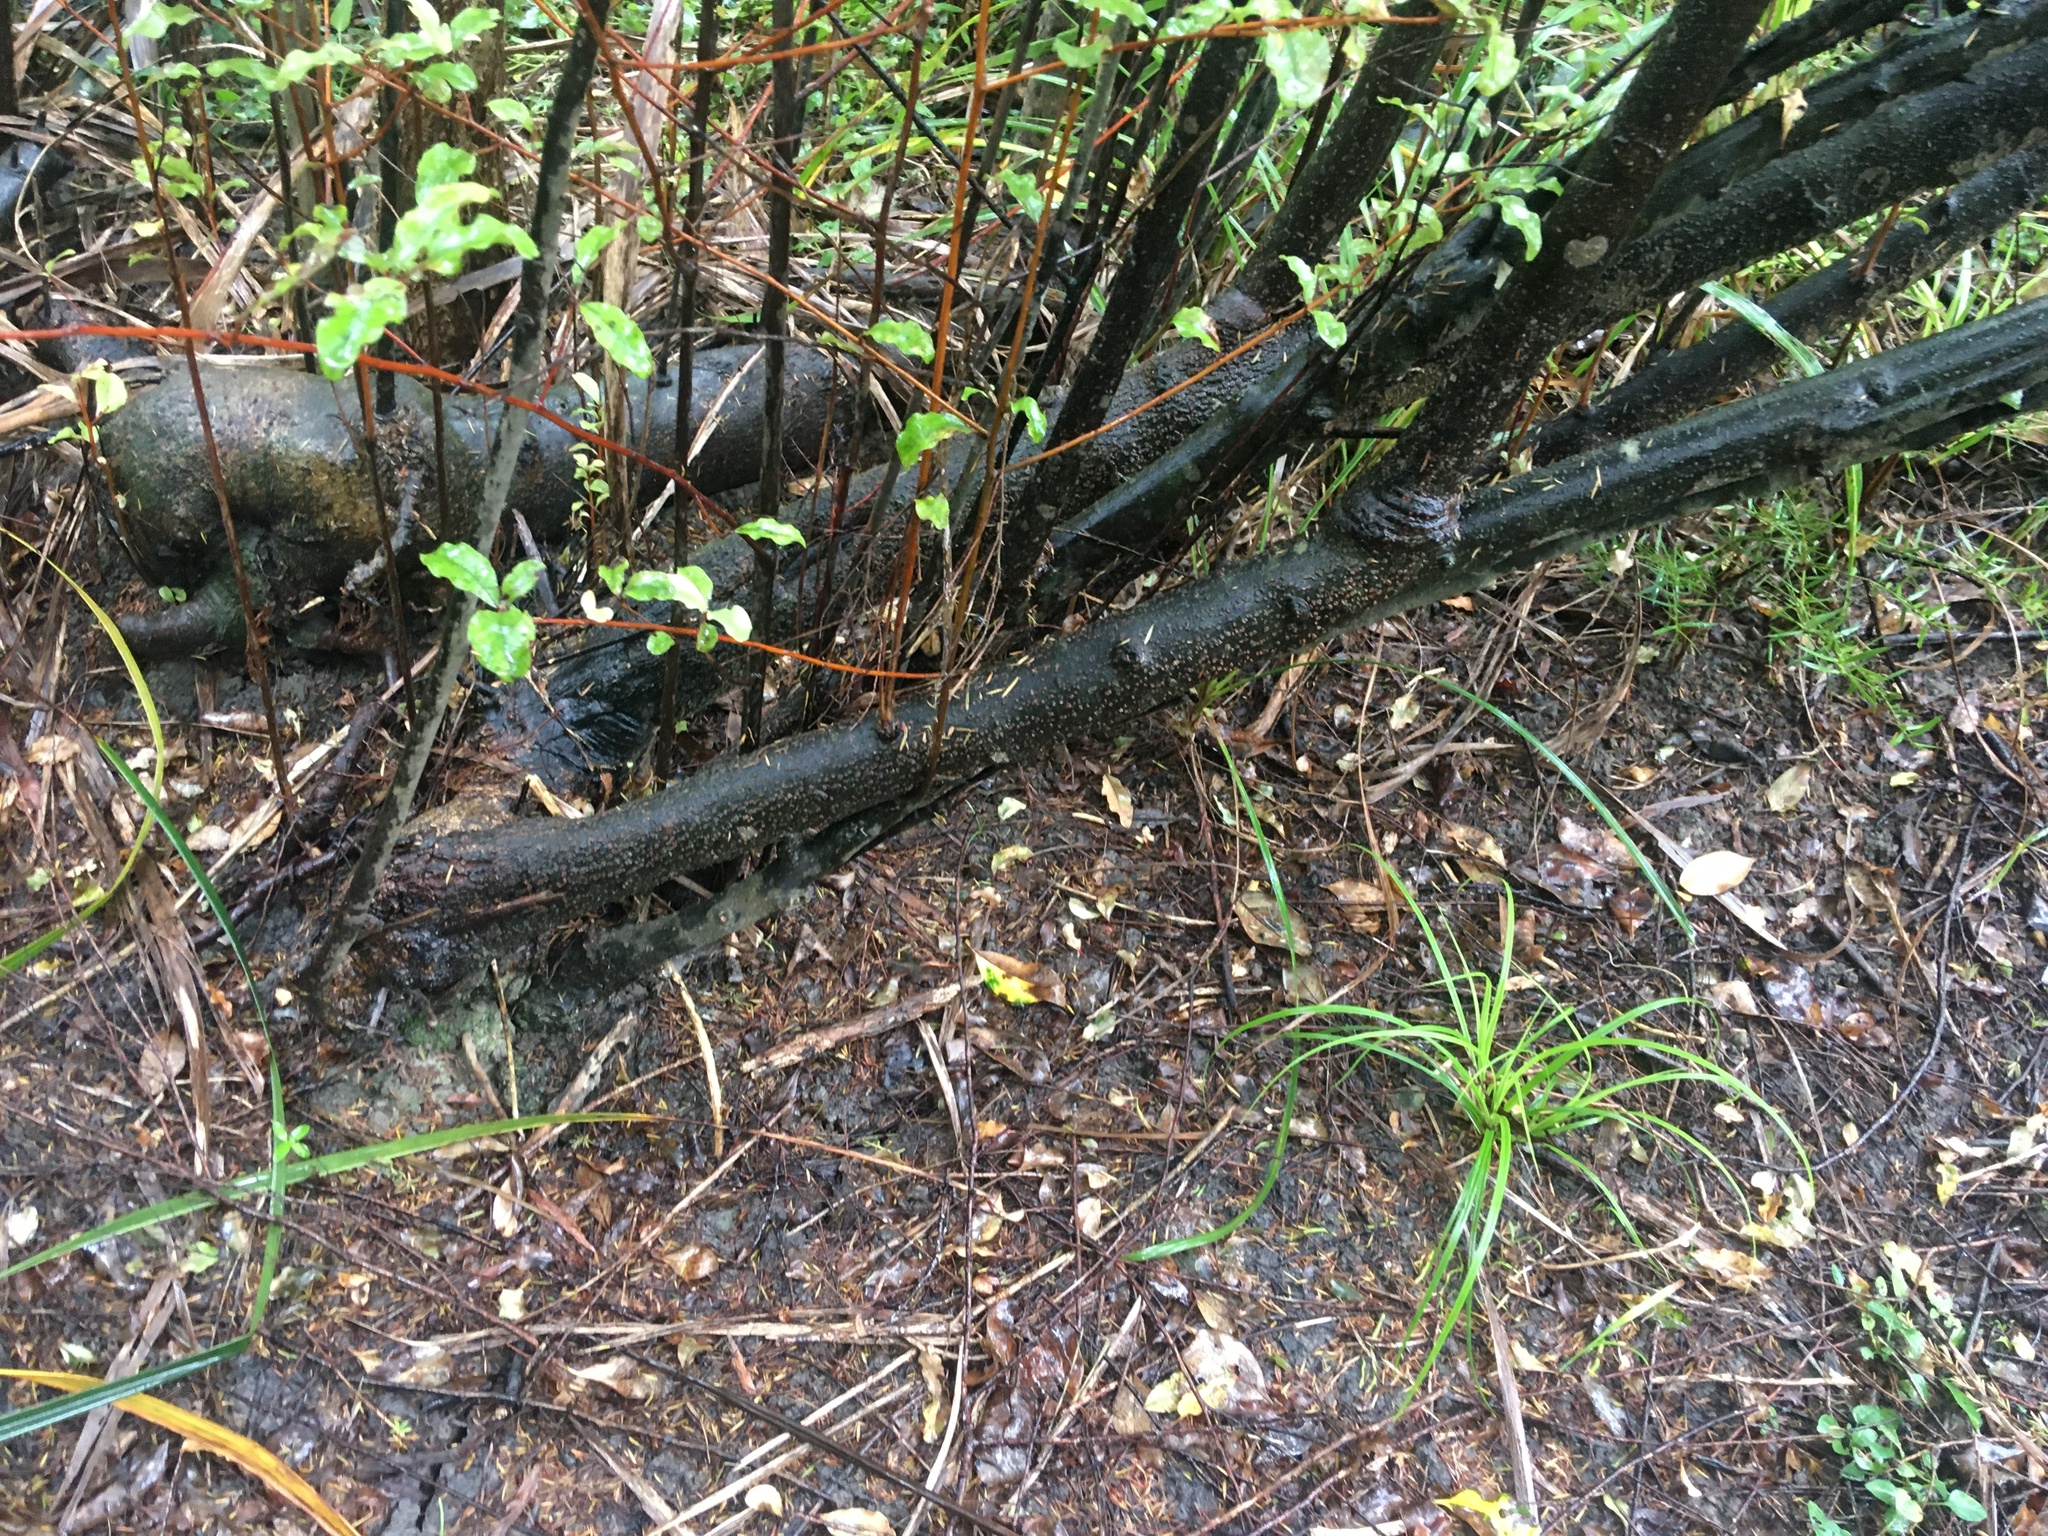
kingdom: Plantae
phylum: Tracheophyta
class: Magnoliopsida
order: Asterales
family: Rousseaceae
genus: Carpodetus
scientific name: Carpodetus serratus
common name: White mapau
